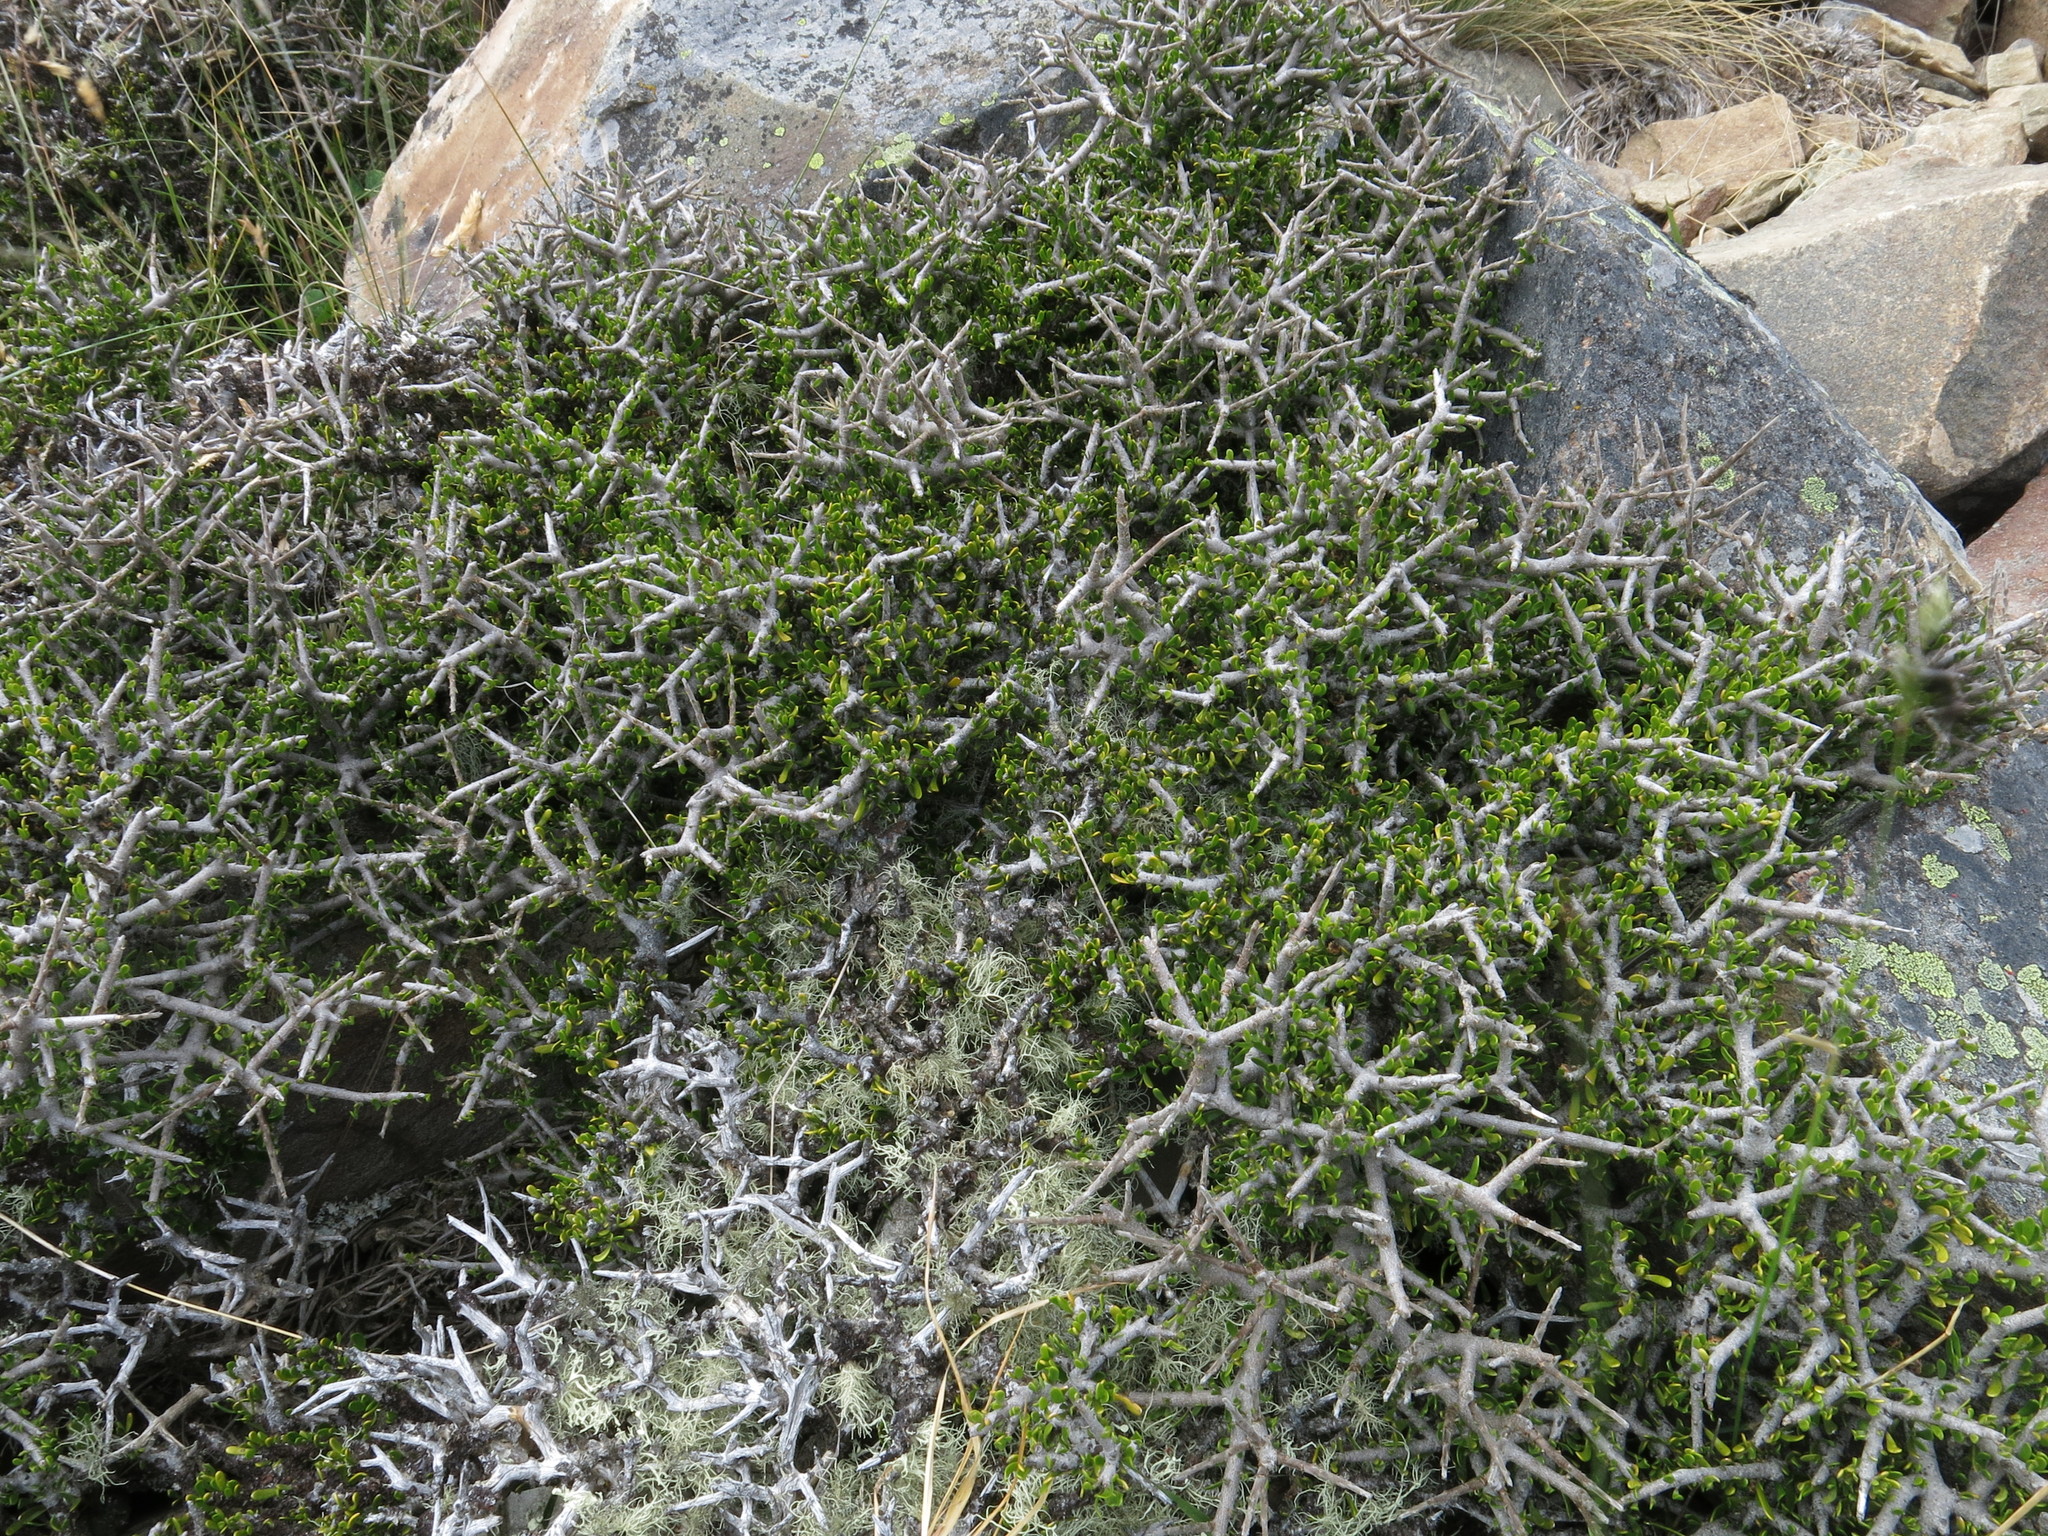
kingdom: Plantae
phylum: Tracheophyta
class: Magnoliopsida
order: Malpighiales
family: Violaceae
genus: Melicytus
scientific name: Melicytus alpinus
